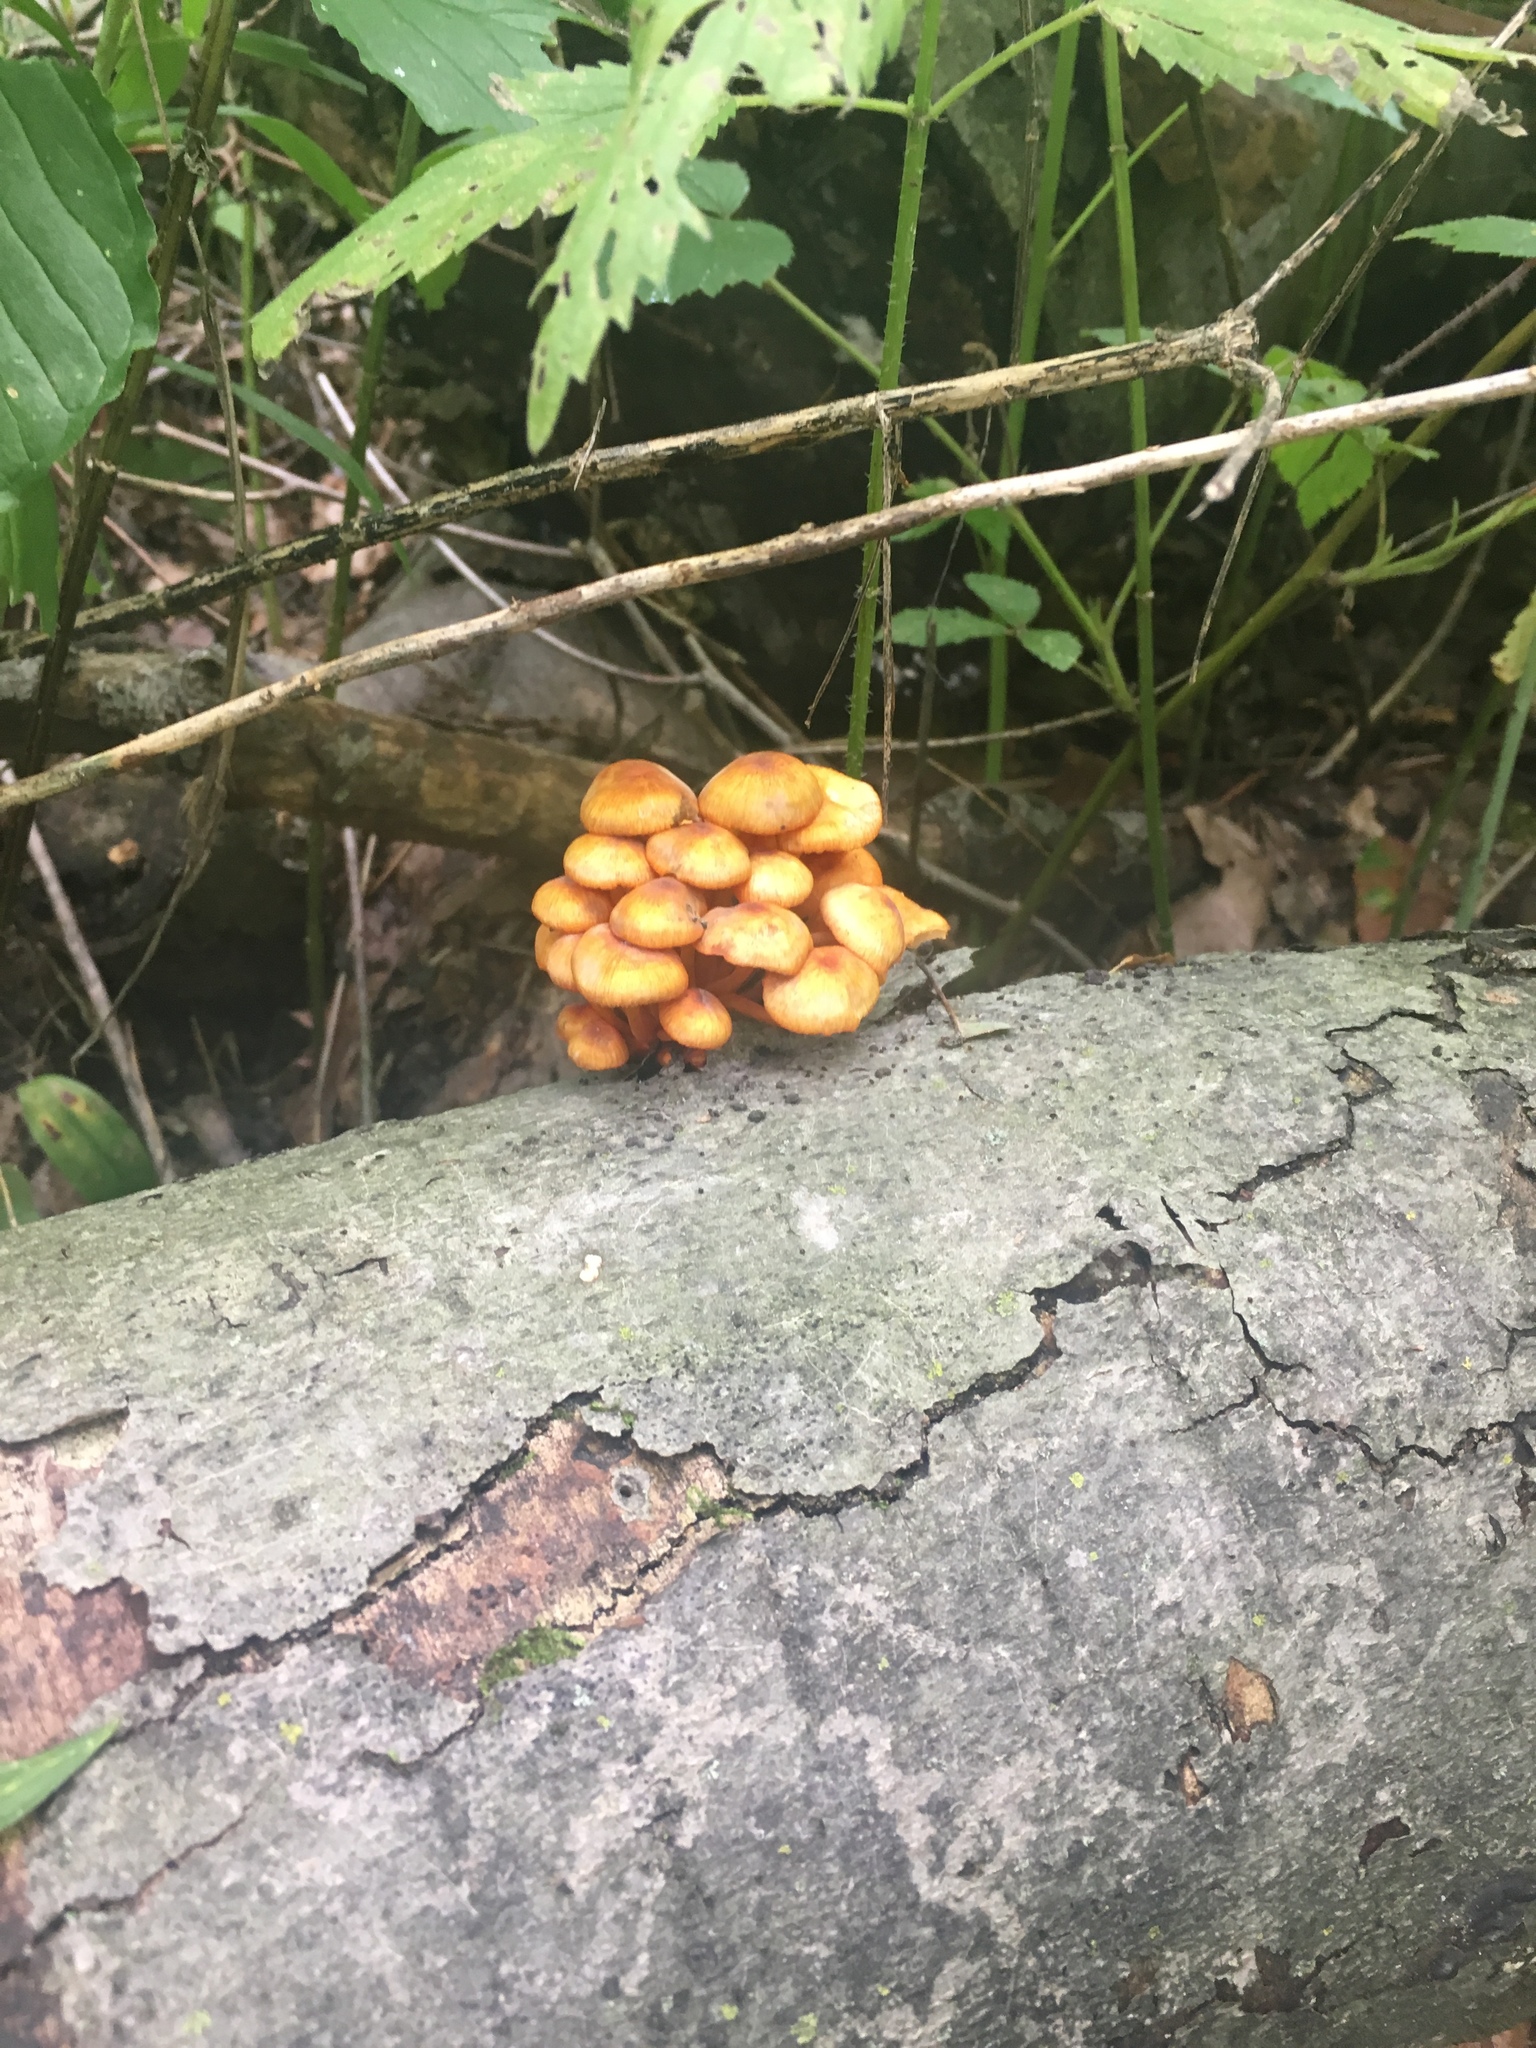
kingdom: Fungi
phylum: Basidiomycota
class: Agaricomycetes
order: Agaricales
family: Mycenaceae
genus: Mycena
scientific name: Mycena leaiana
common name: Orange mycena
